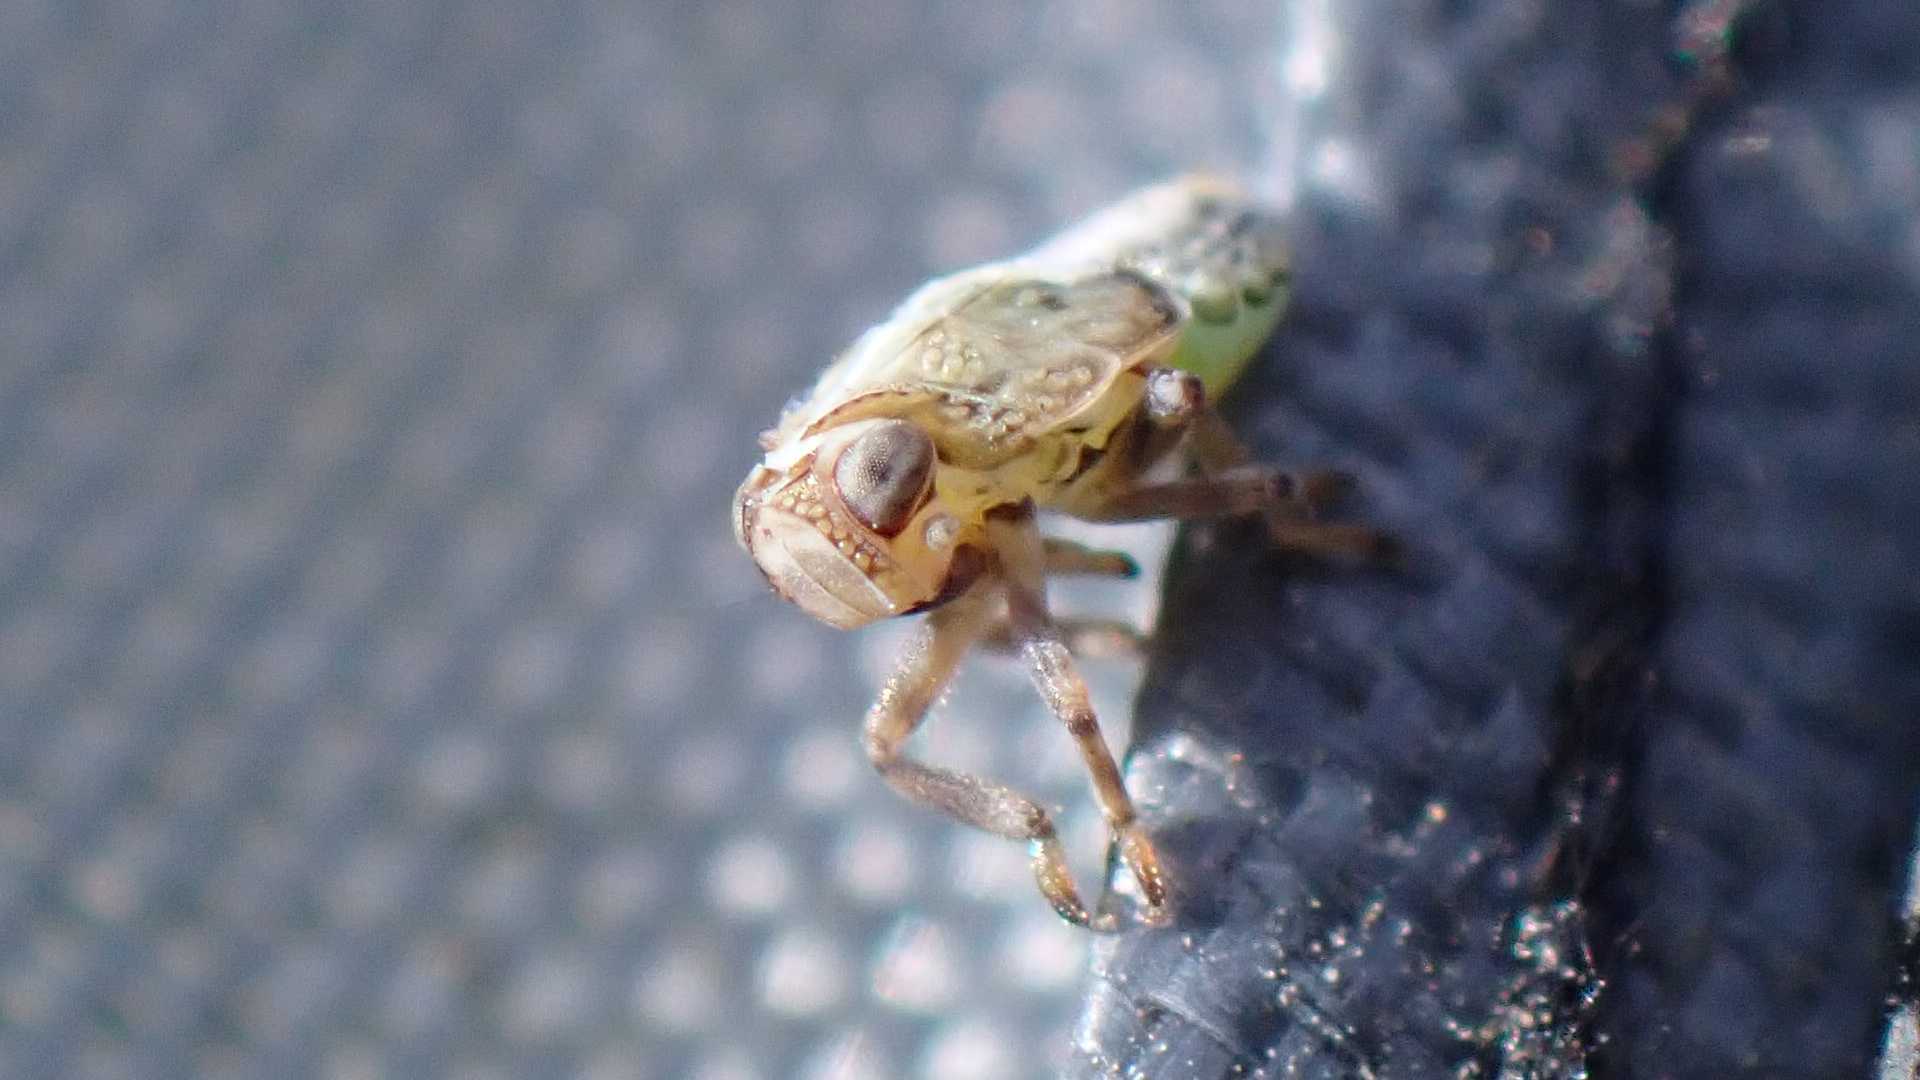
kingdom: Animalia
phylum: Arthropoda
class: Insecta
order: Hemiptera
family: Issidae
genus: Issus
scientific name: Issus coleoptratus
